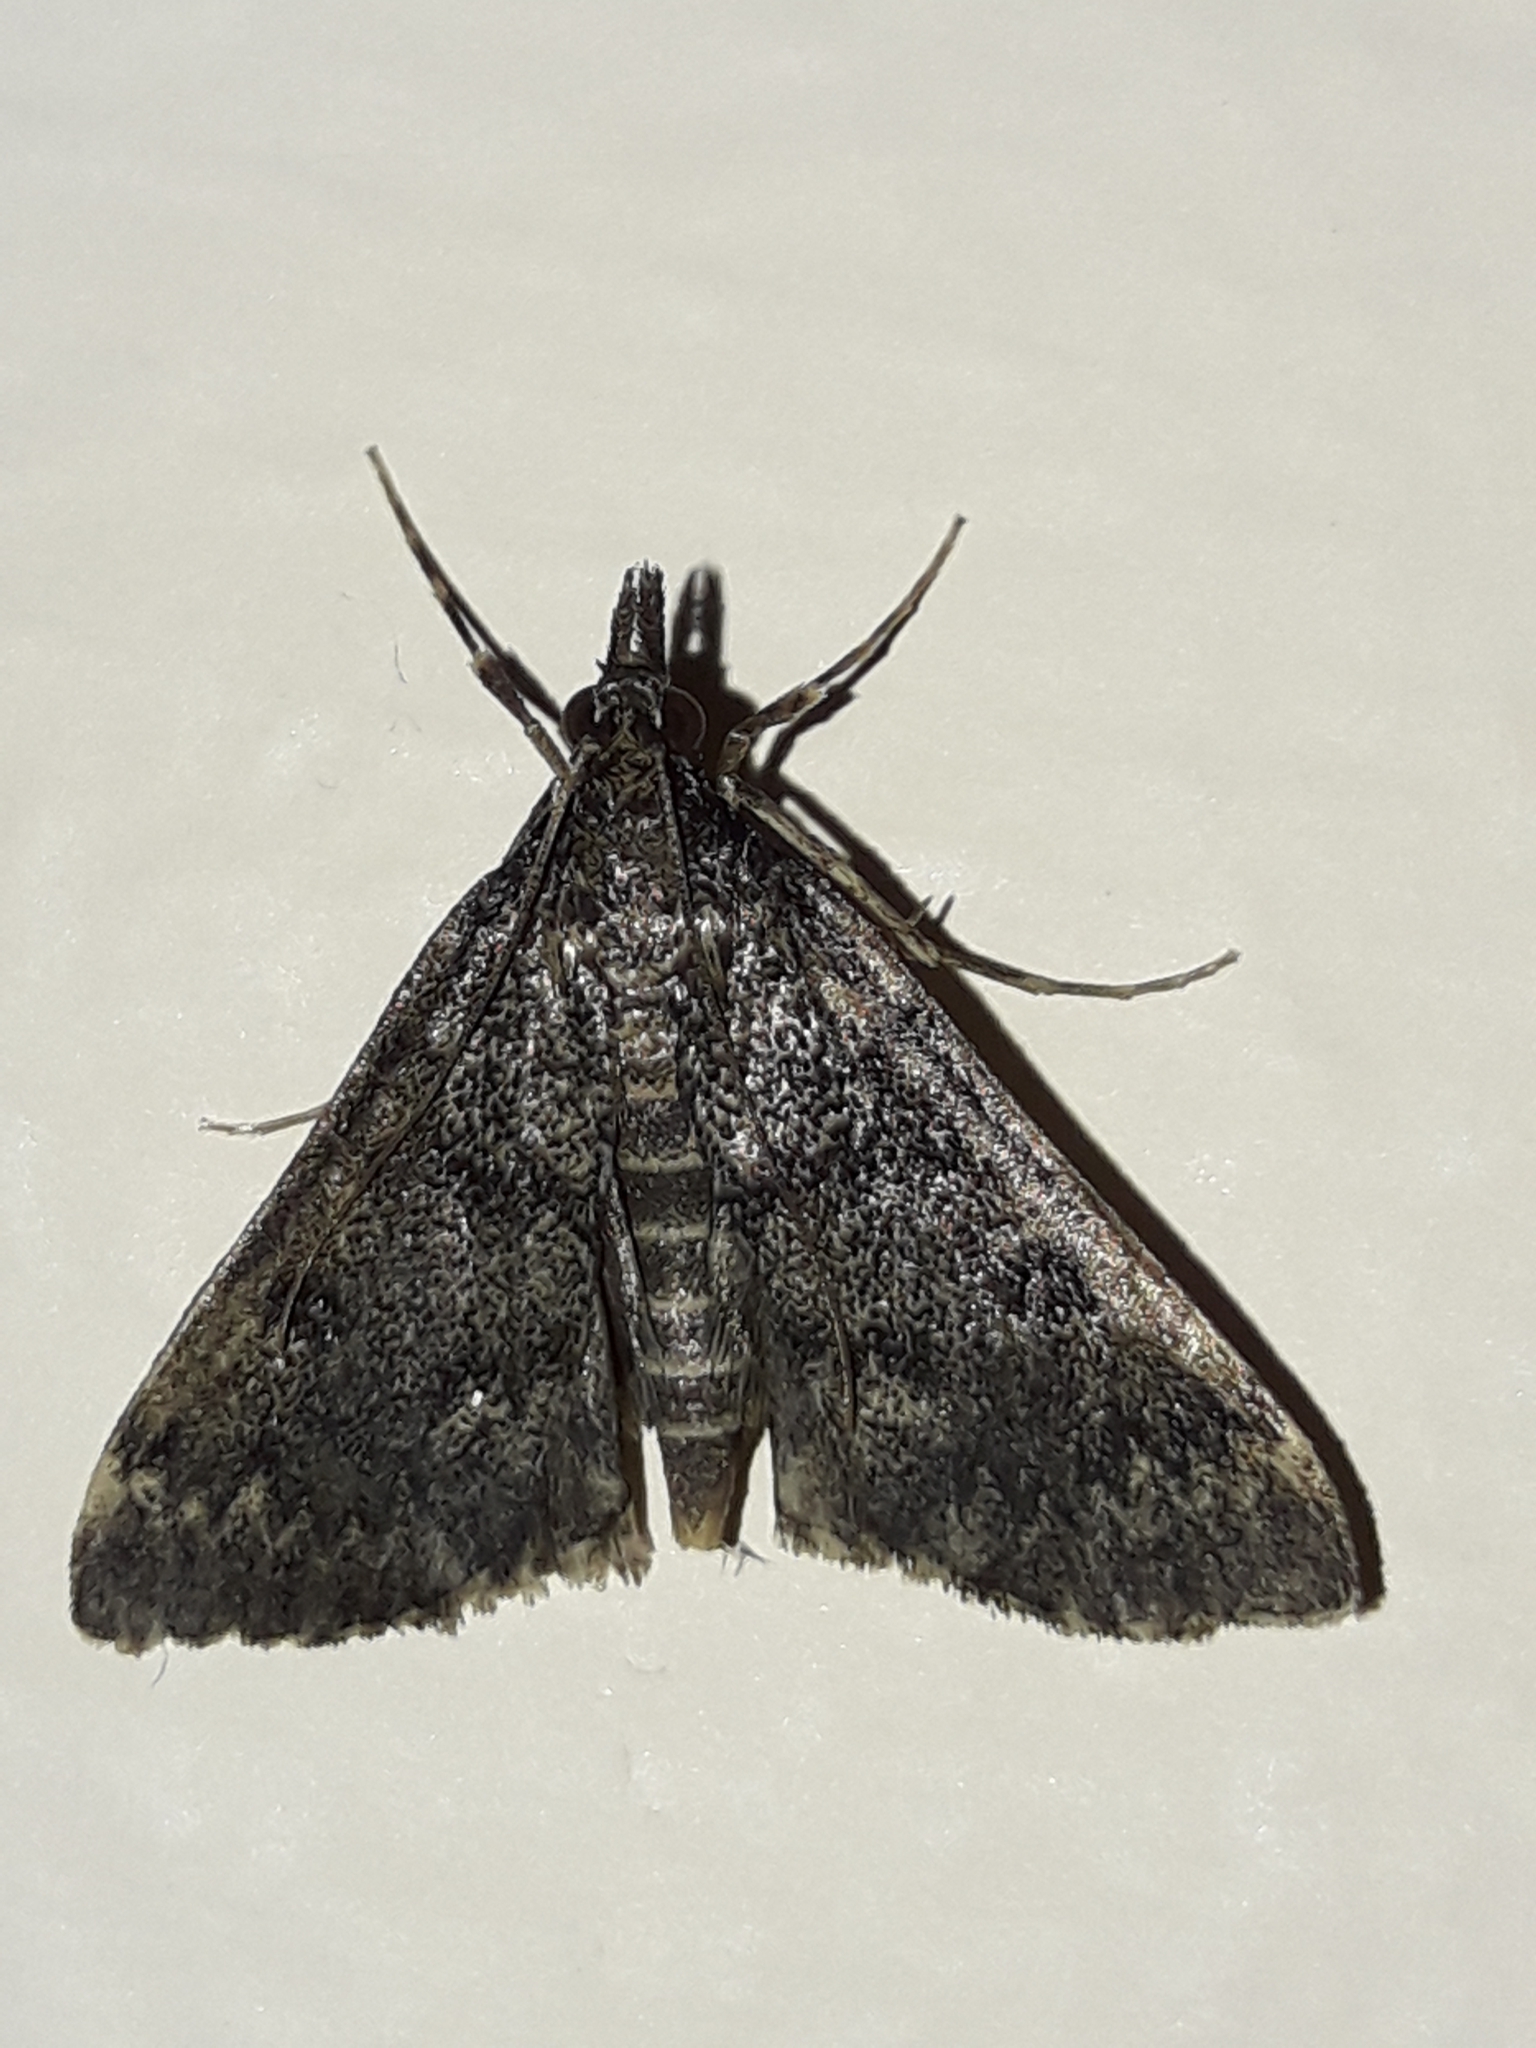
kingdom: Animalia
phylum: Arthropoda
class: Insecta
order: Lepidoptera
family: Crambidae
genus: Loxostege
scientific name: Loxostege Proternia philocapna
